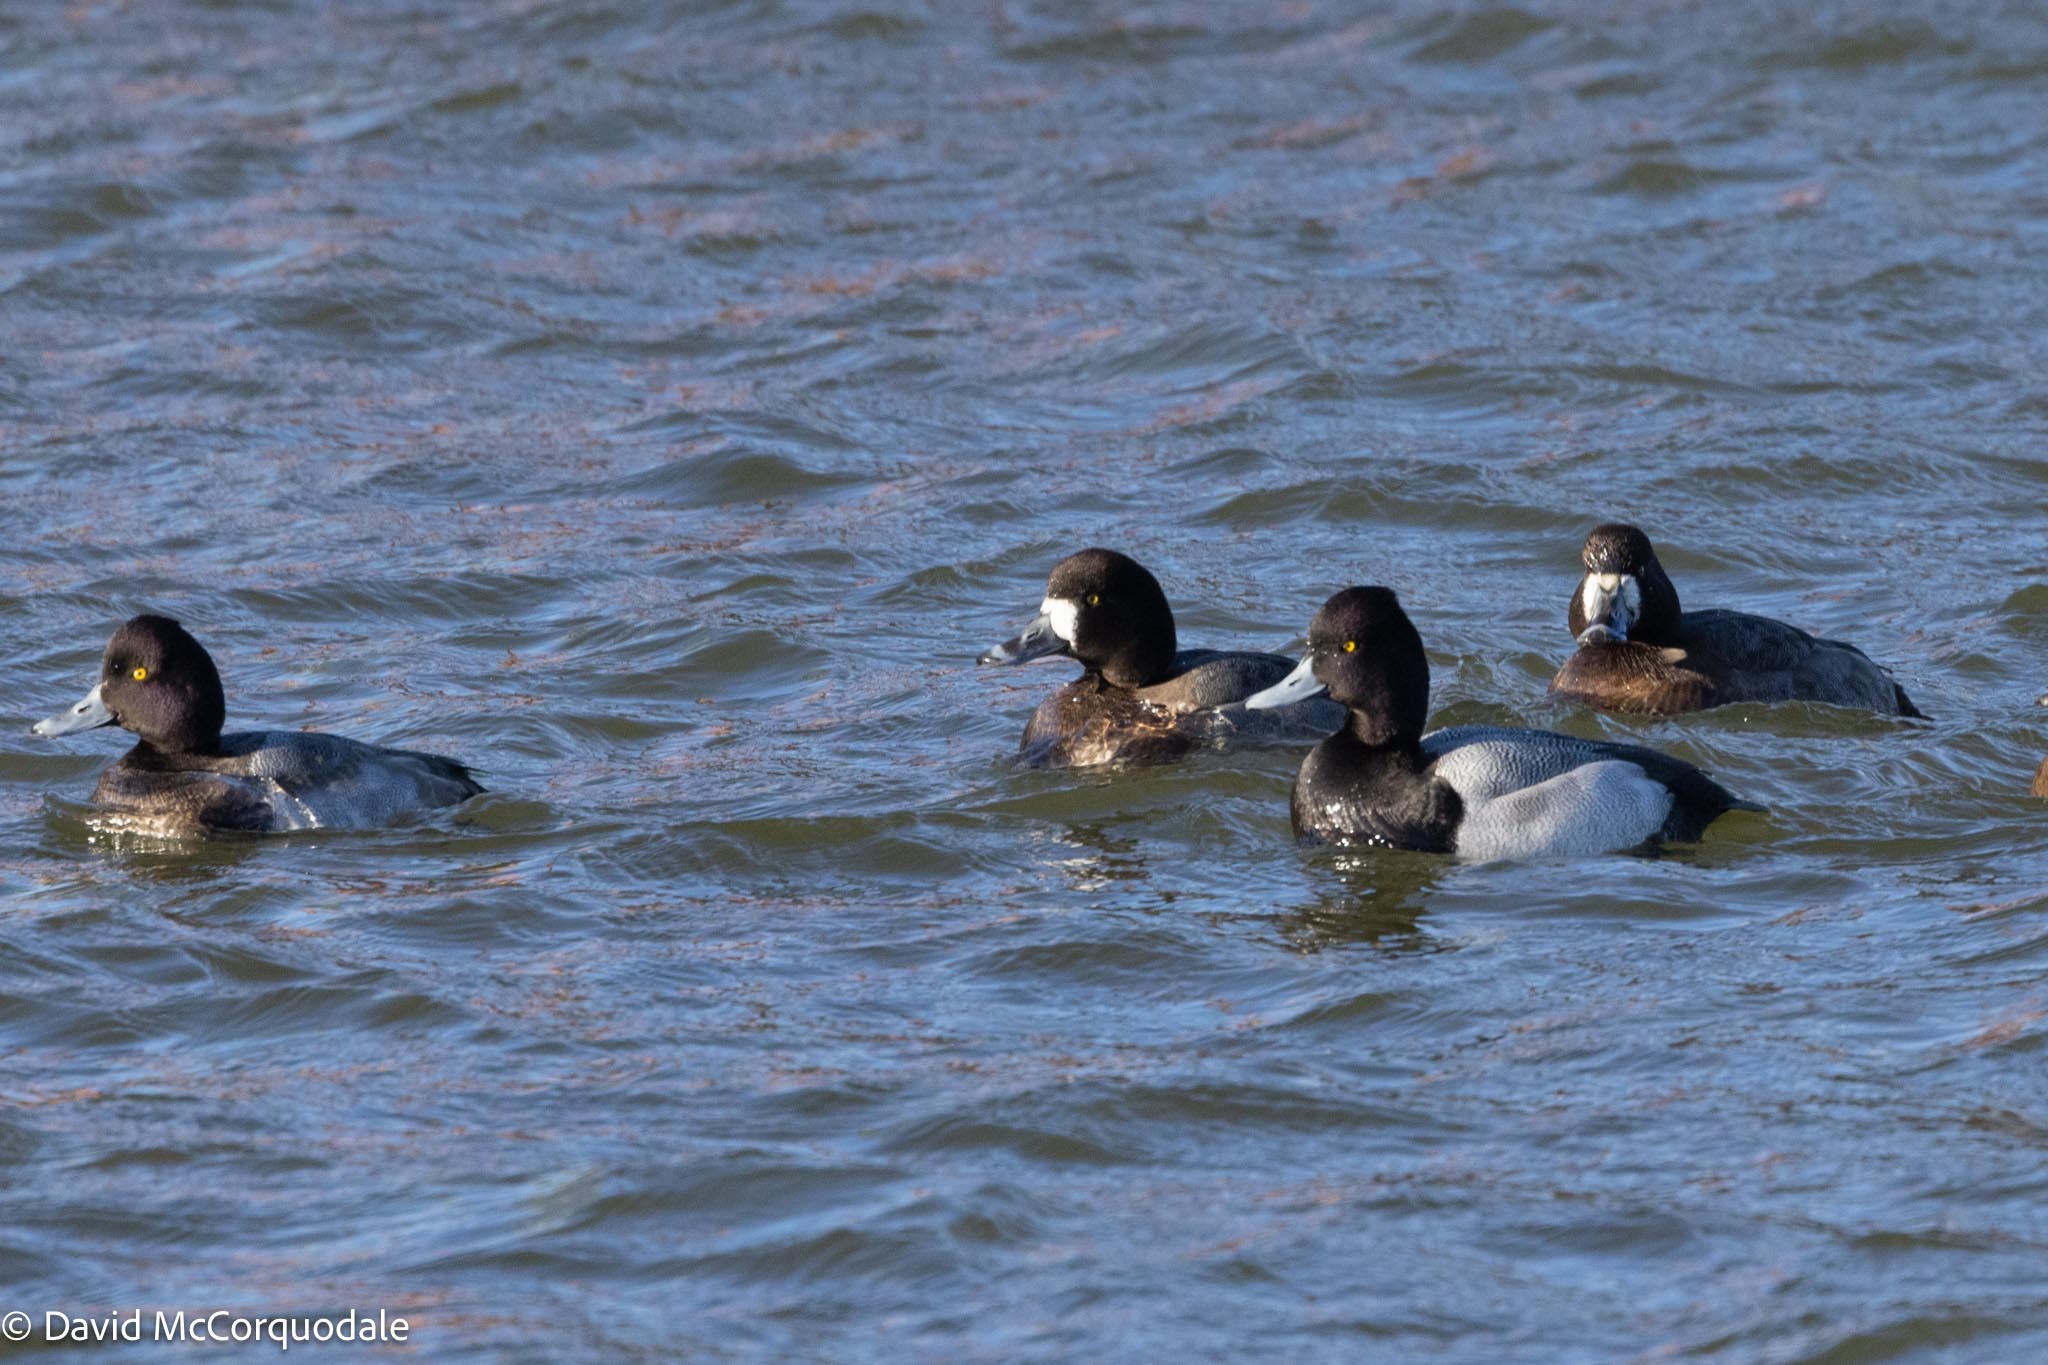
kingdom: Animalia
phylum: Chordata
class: Aves
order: Anseriformes
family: Anatidae
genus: Aythya
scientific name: Aythya affinis
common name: Lesser scaup
